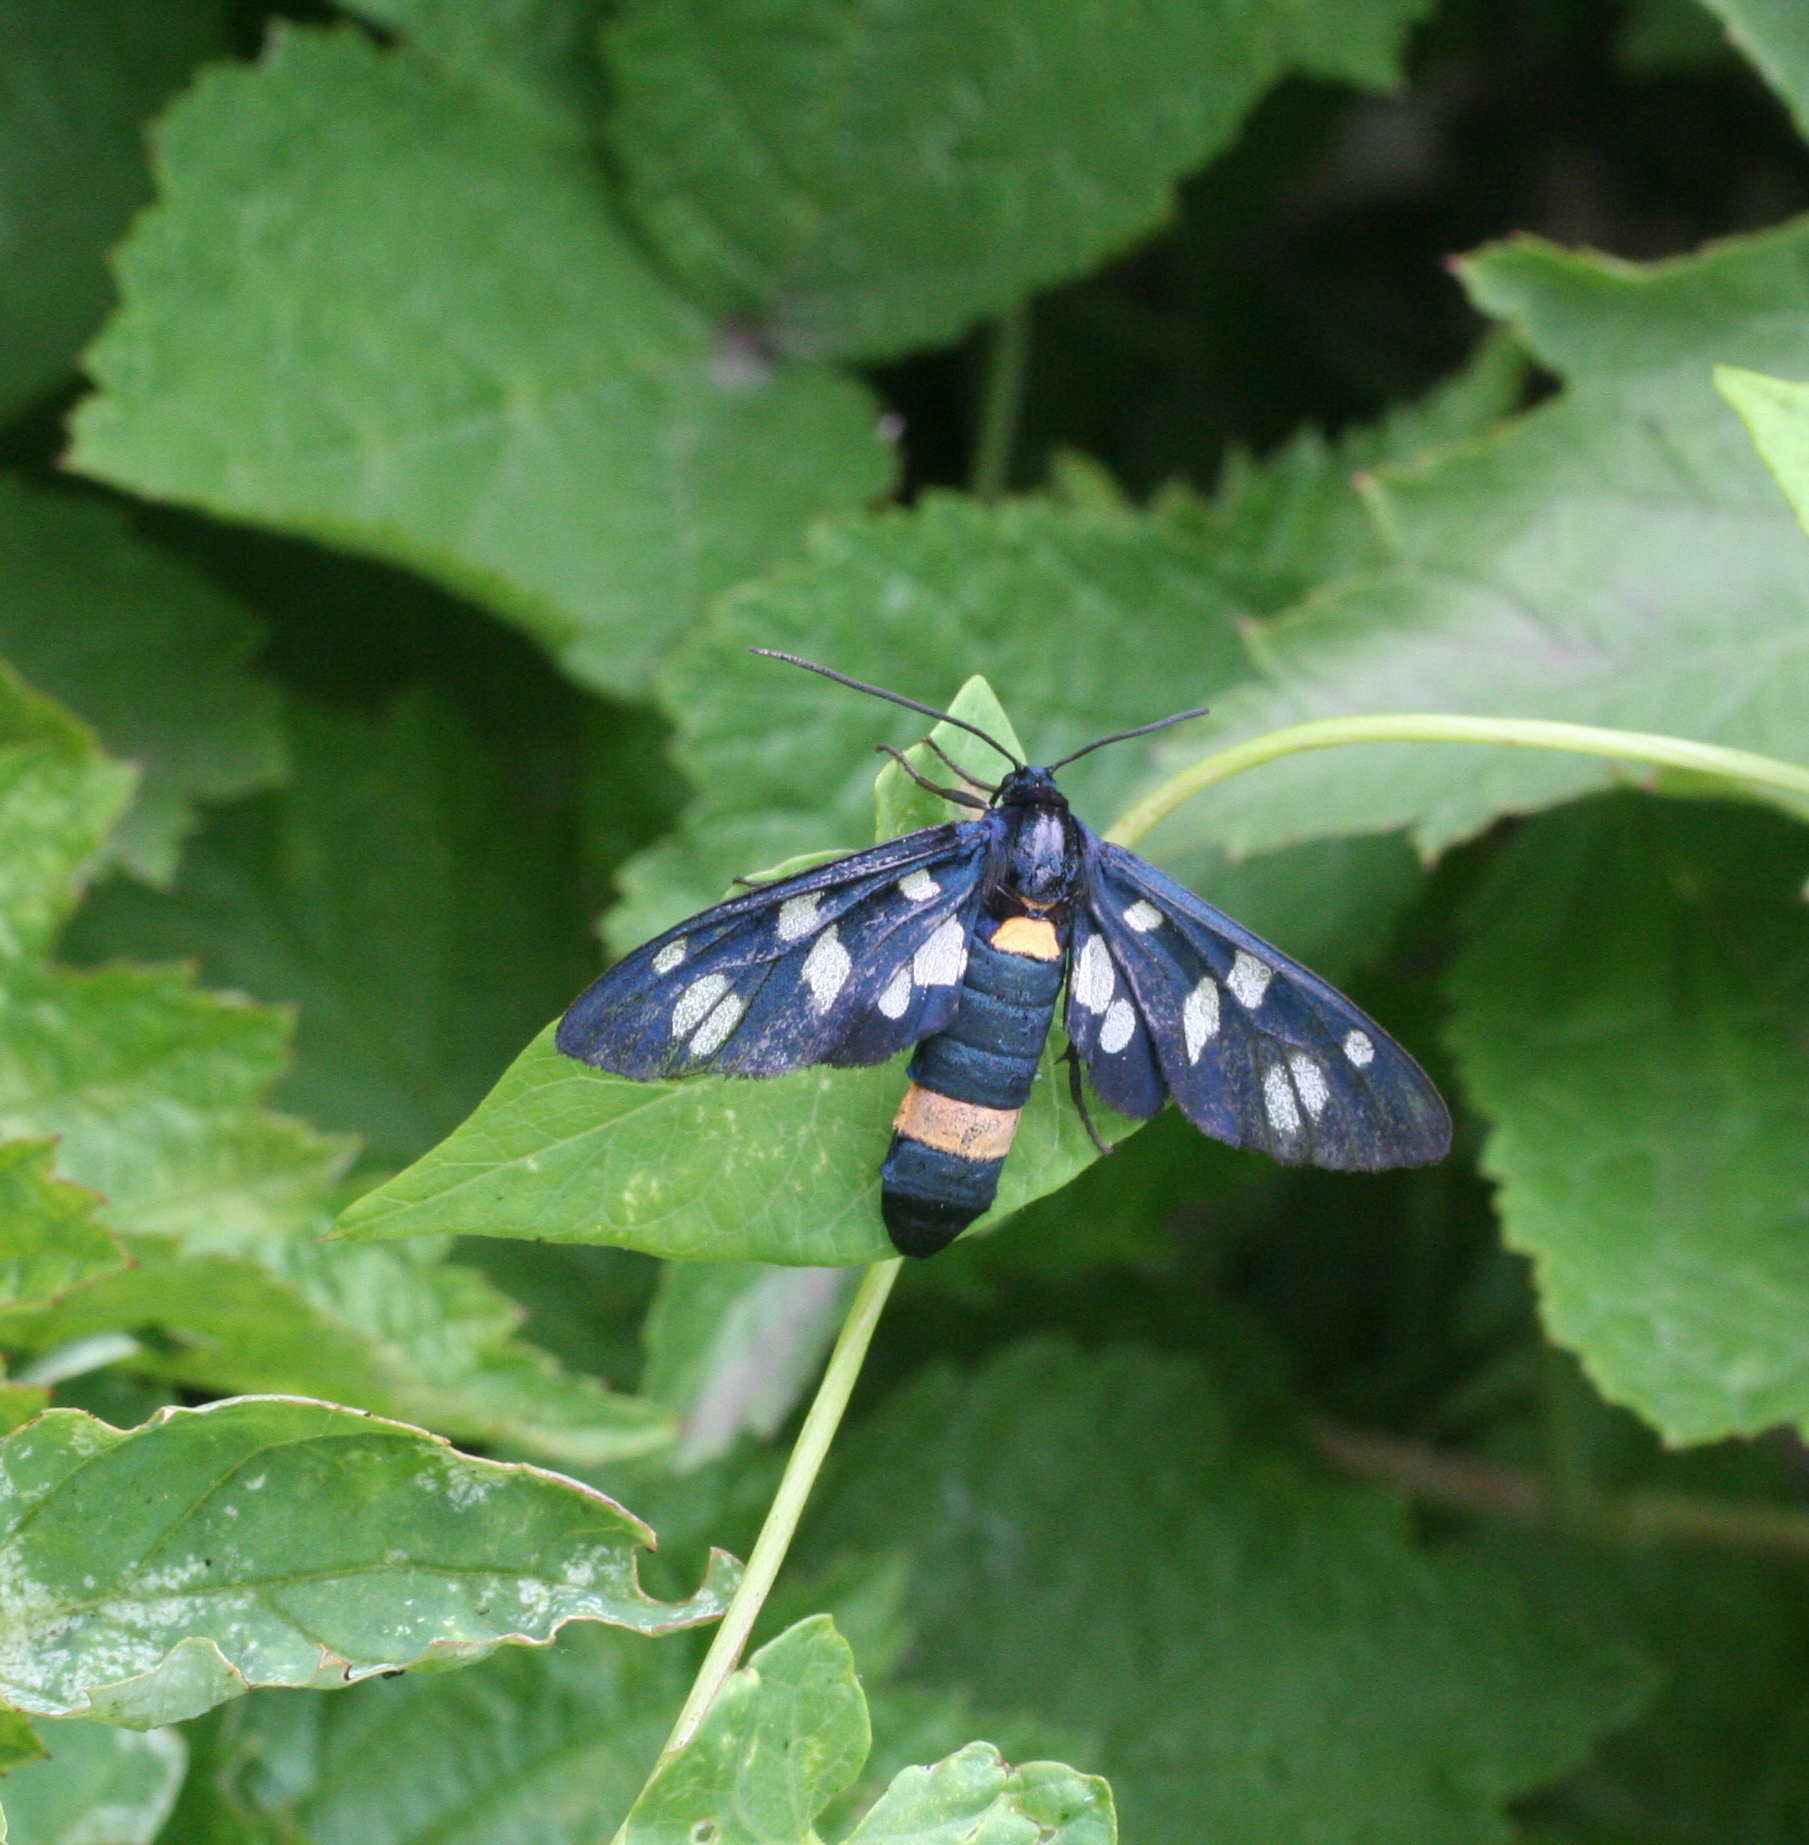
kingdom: Animalia
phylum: Arthropoda
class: Insecta
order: Lepidoptera
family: Erebidae
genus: Amata
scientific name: Amata nigricornis
